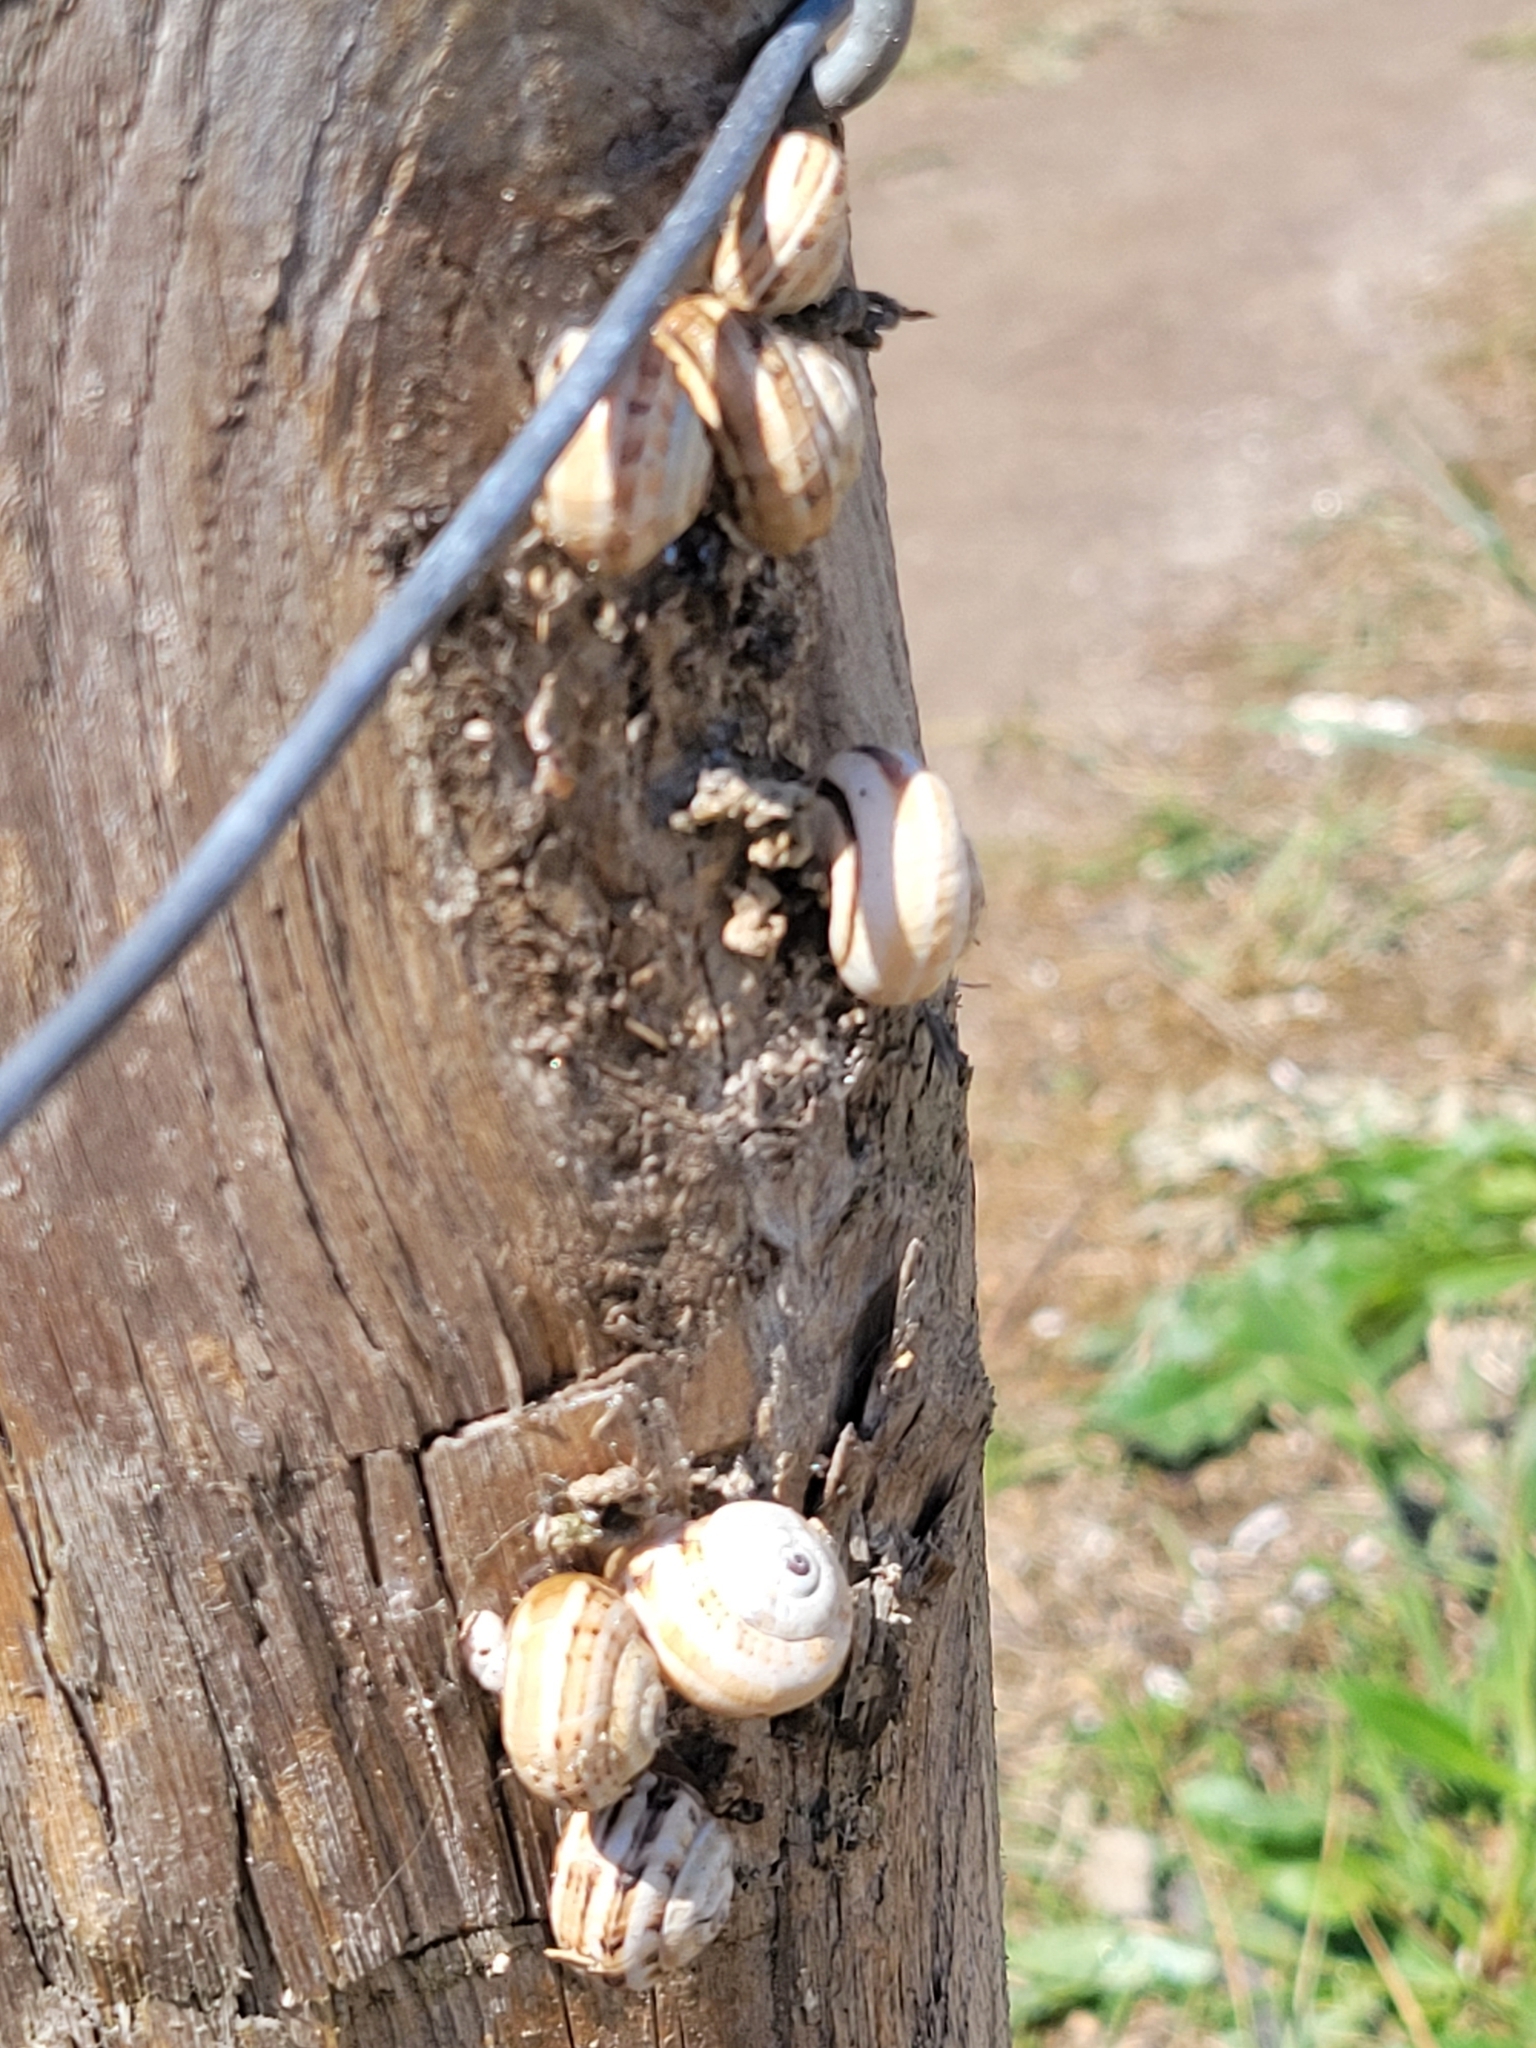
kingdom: Animalia
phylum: Mollusca
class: Gastropoda
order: Stylommatophora
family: Helicidae
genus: Theba
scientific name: Theba pisana
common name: White snail
